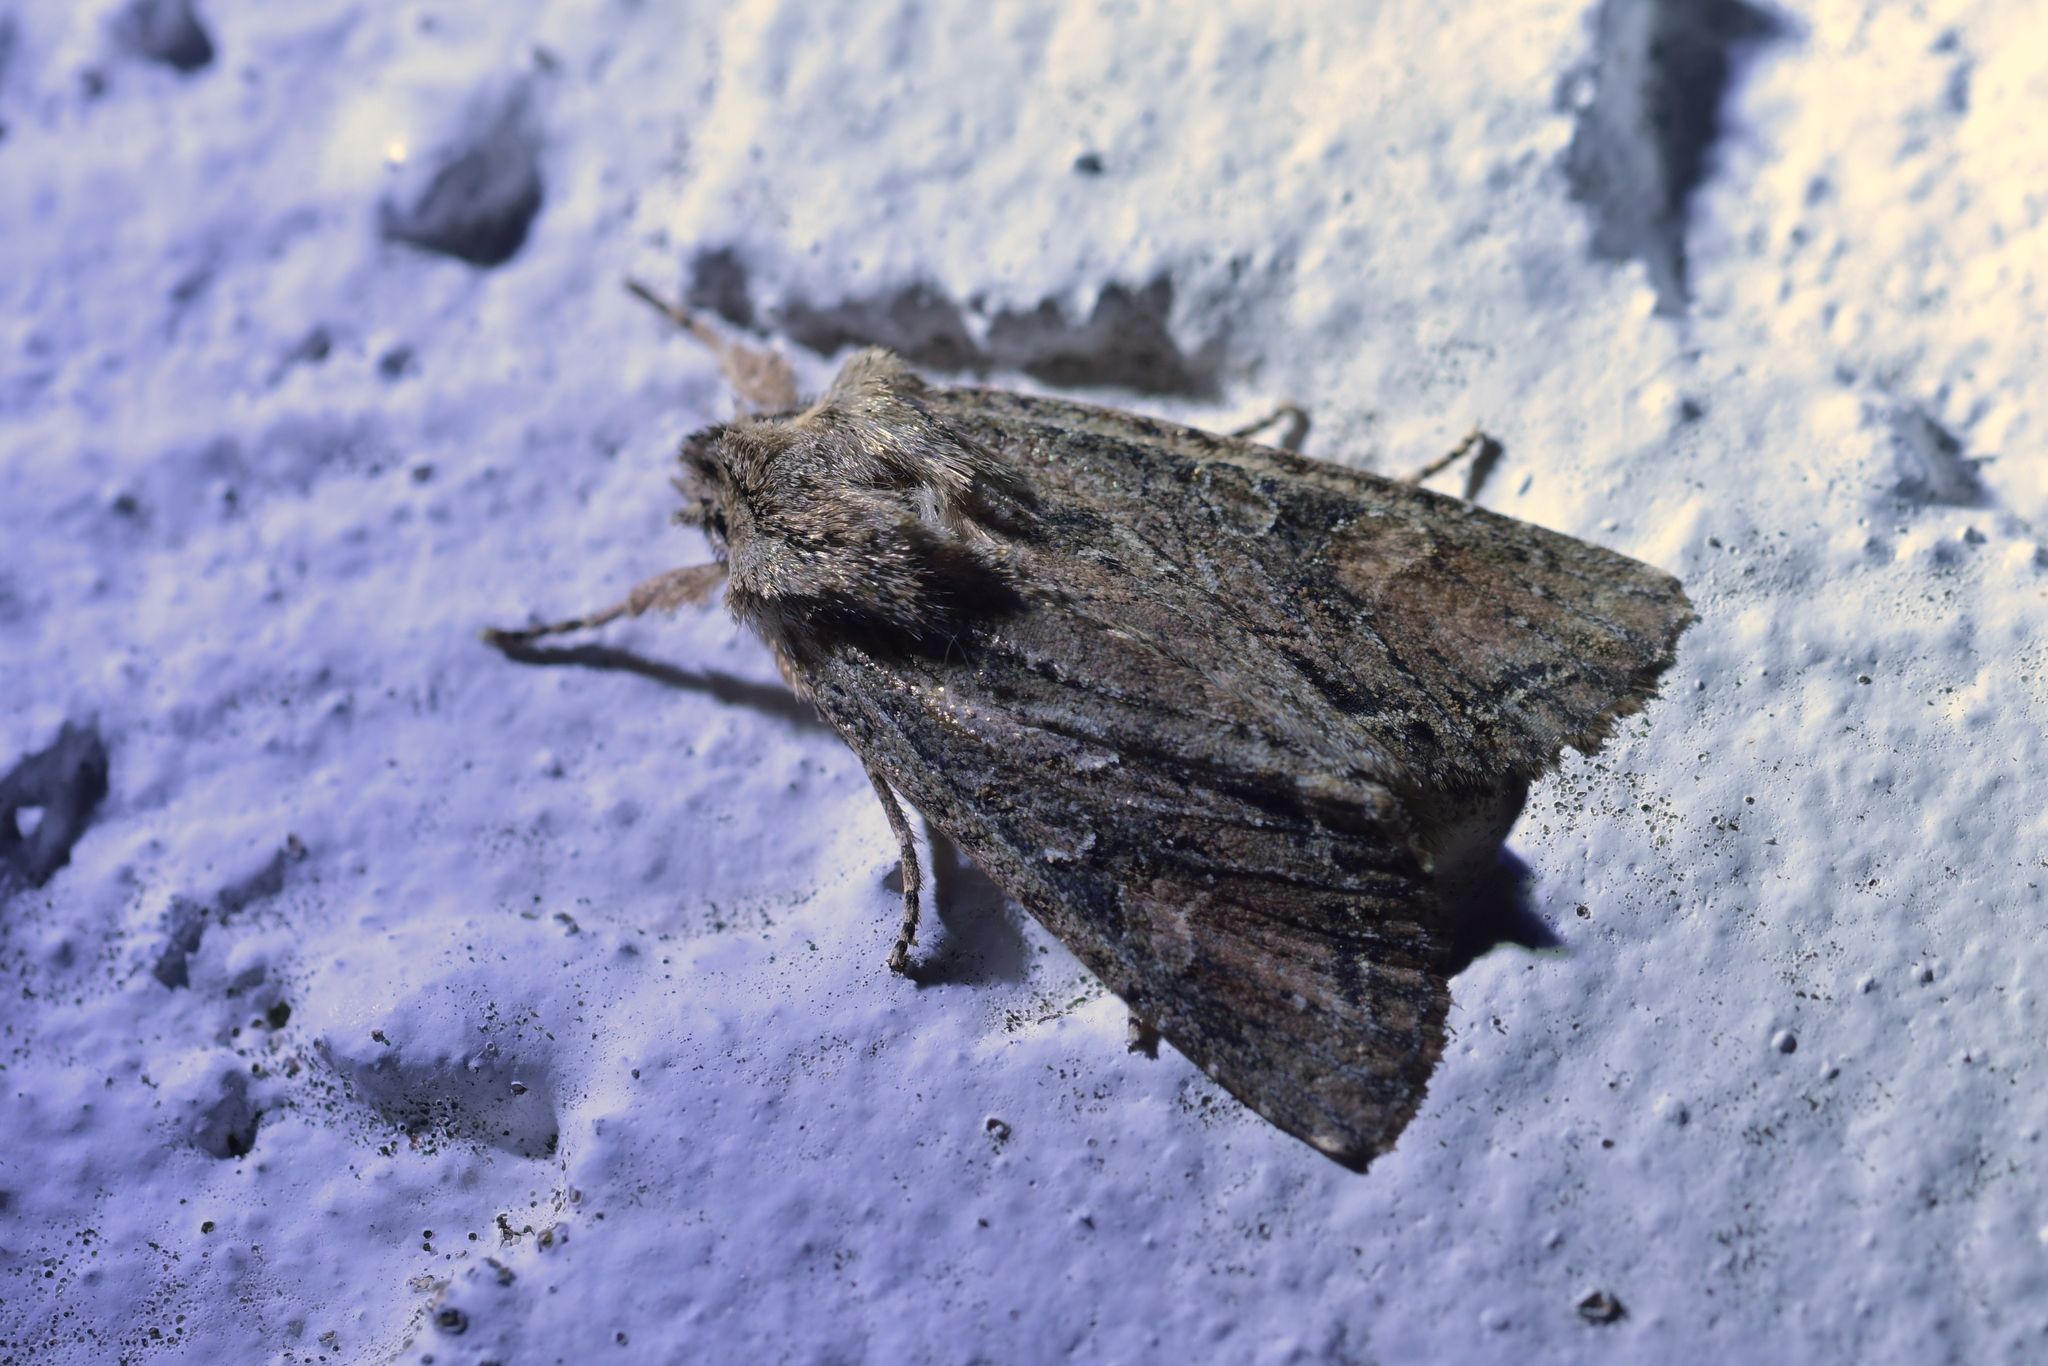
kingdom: Animalia
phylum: Arthropoda
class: Insecta
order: Lepidoptera
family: Noctuidae
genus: Ichneutica
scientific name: Ichneutica mutans
